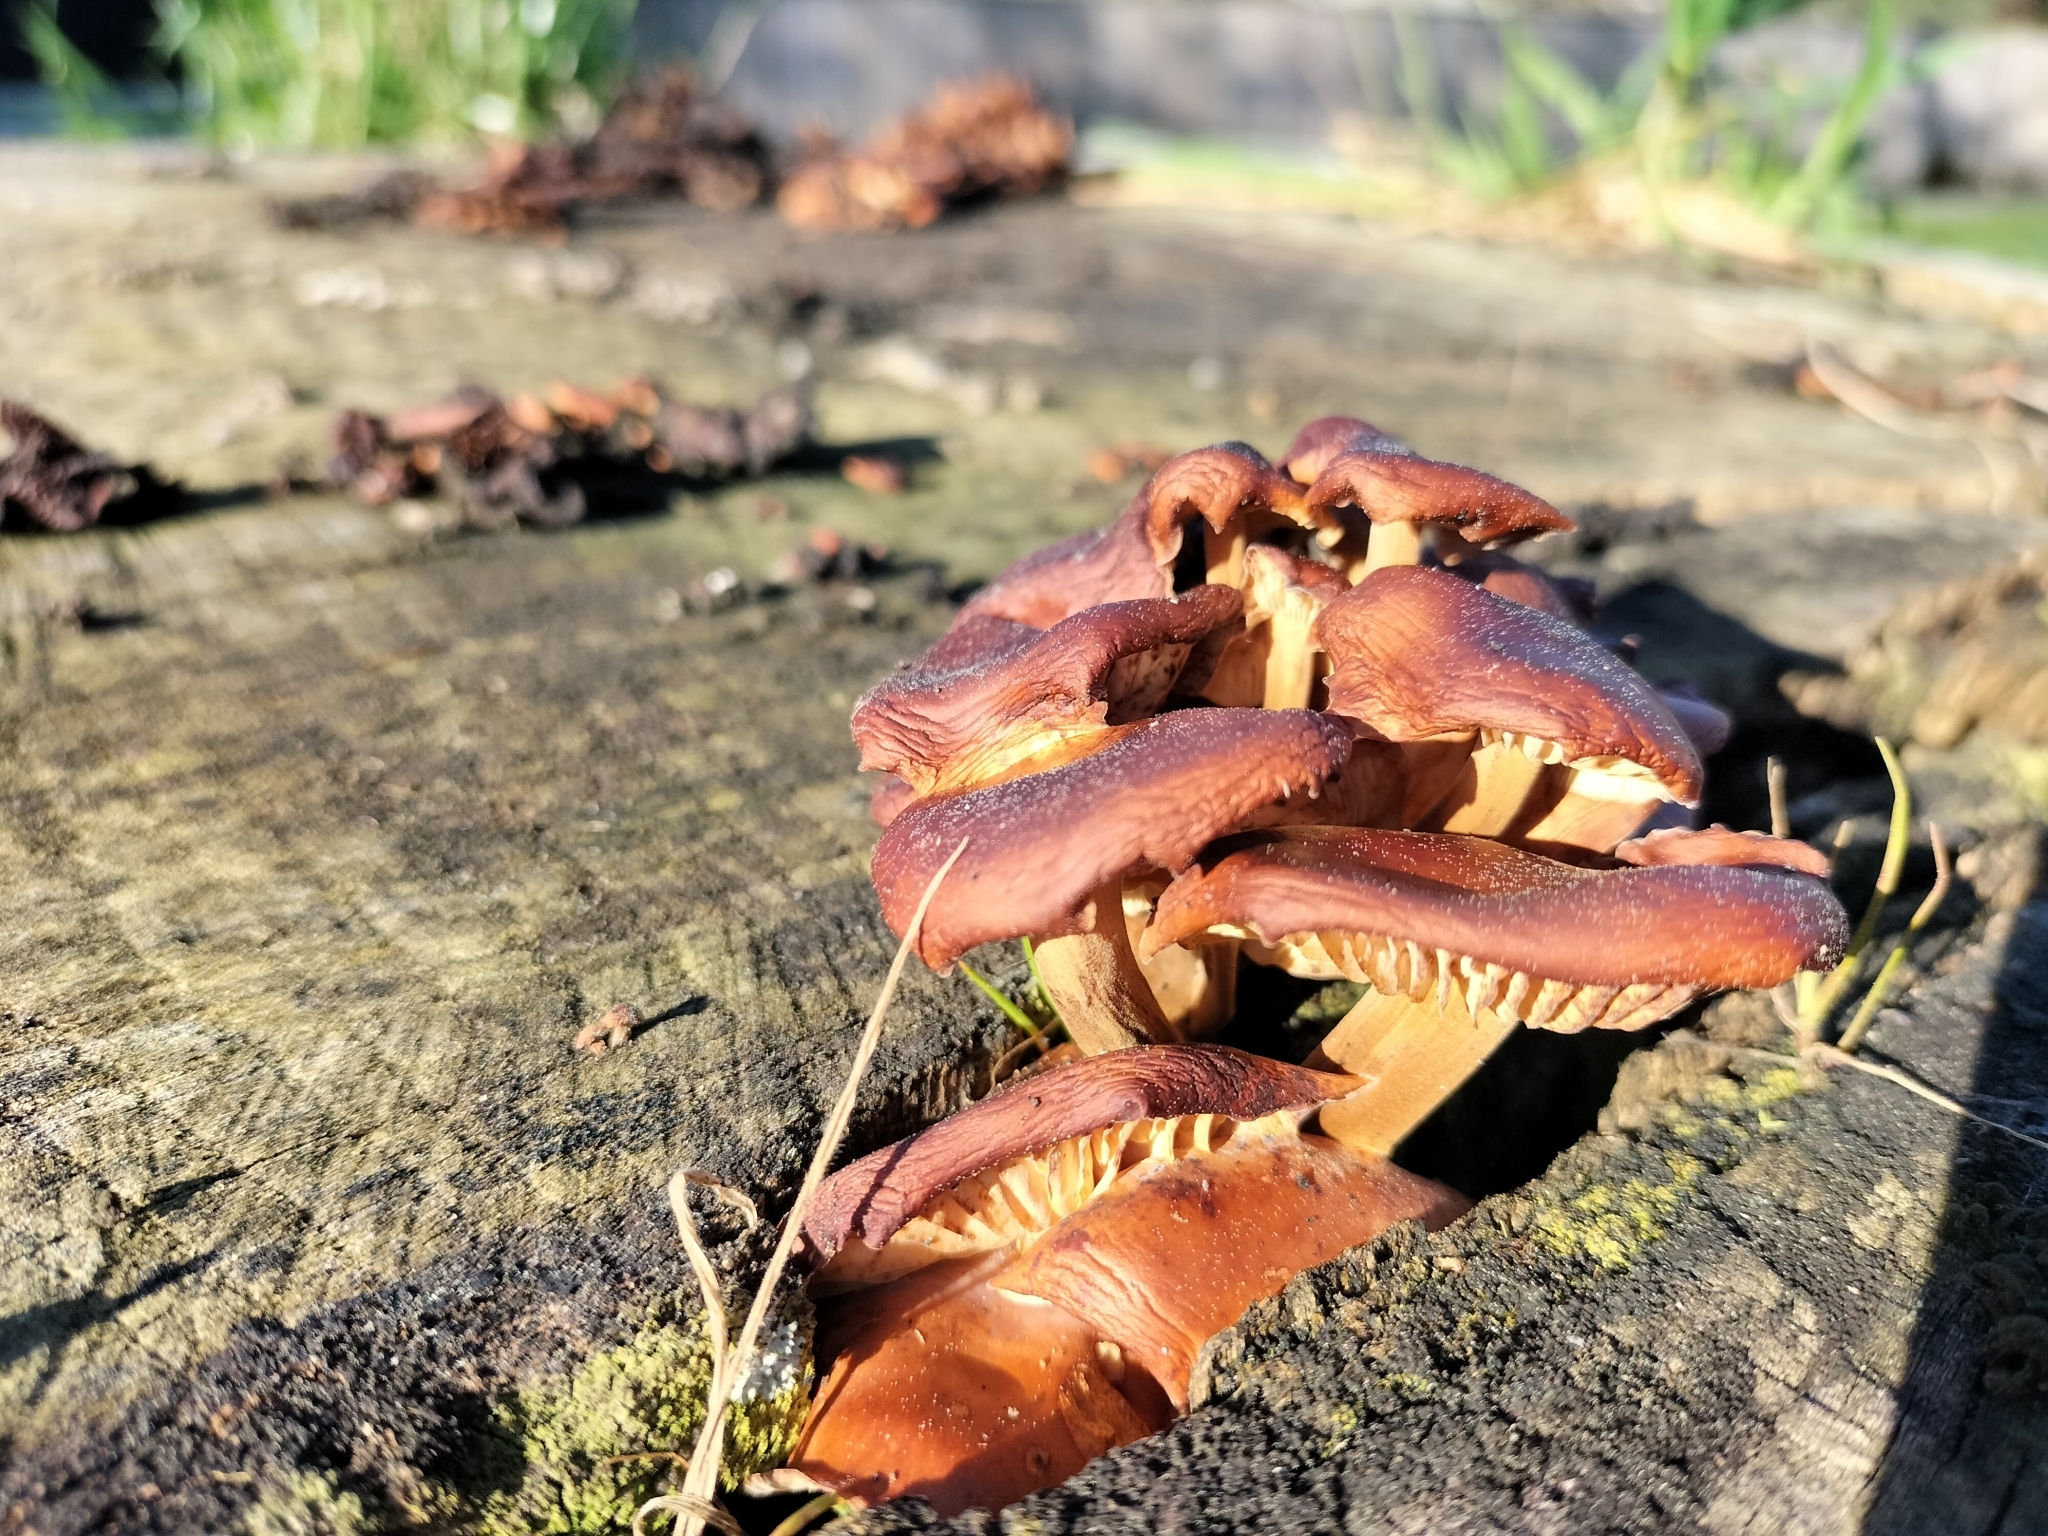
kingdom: Fungi
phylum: Basidiomycota
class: Agaricomycetes
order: Agaricales
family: Physalacriaceae
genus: Flammulina
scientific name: Flammulina velutipes
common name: Velvet shank
